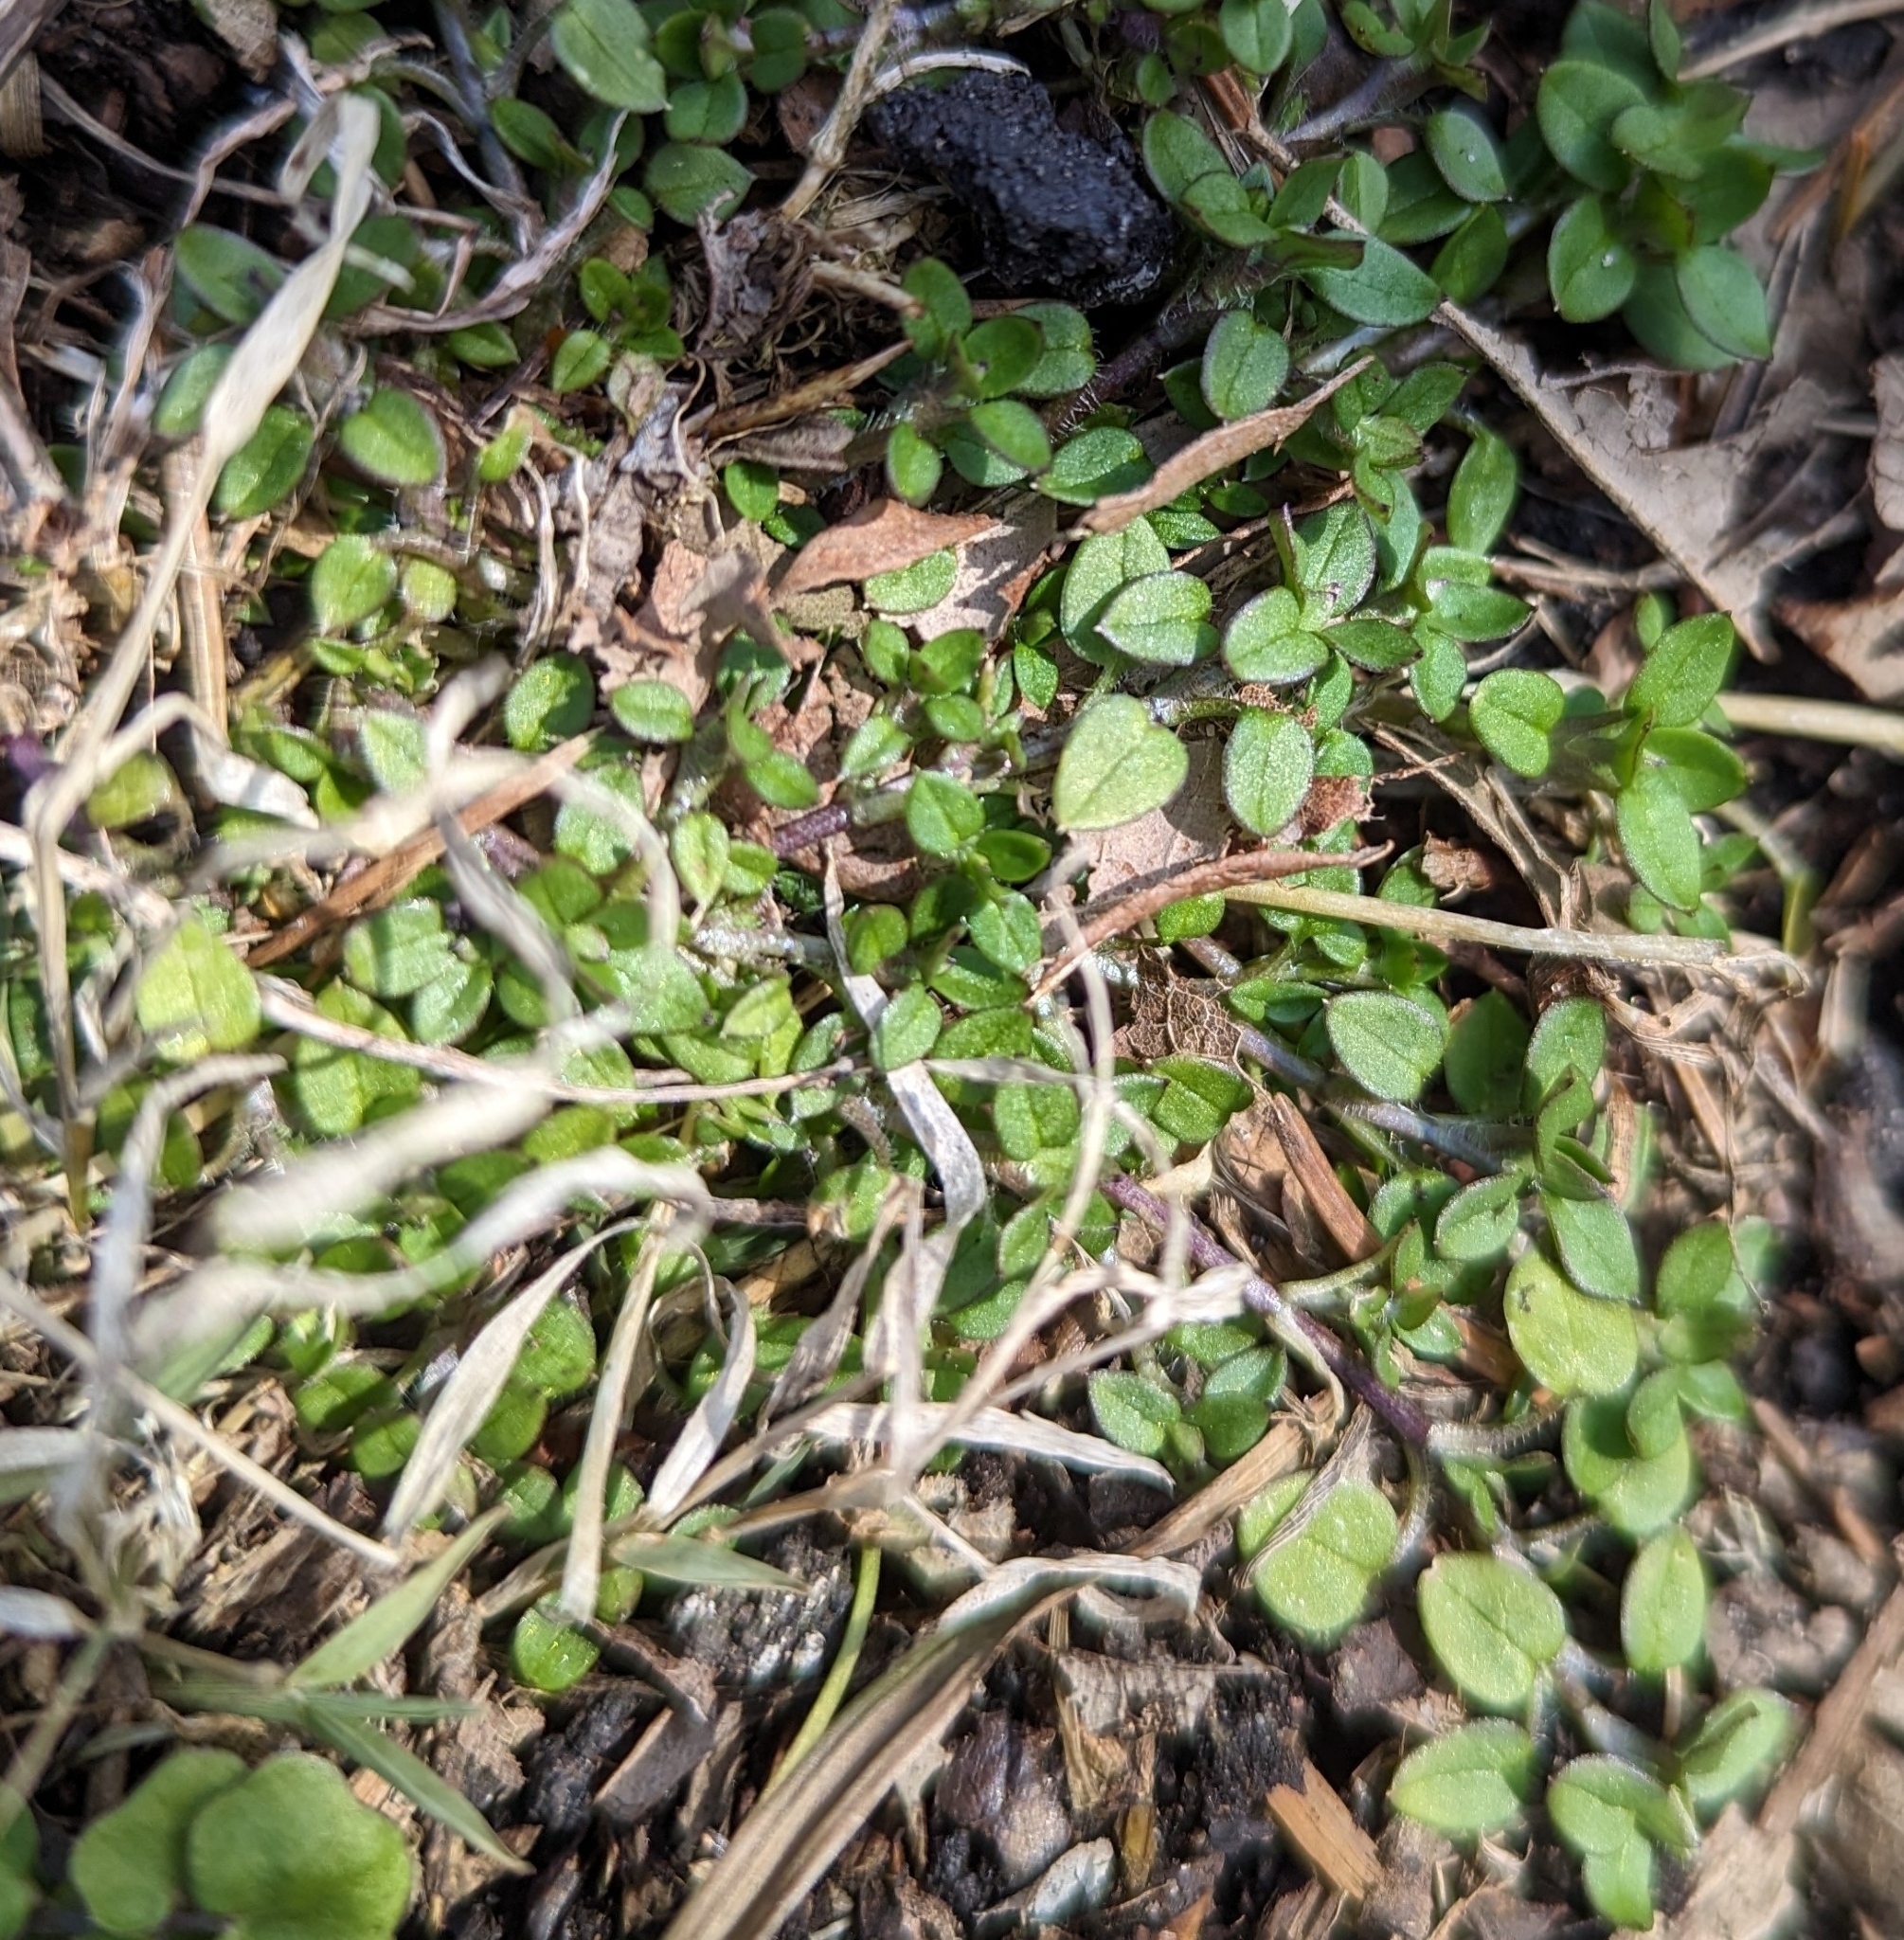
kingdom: Plantae
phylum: Tracheophyta
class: Magnoliopsida
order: Caryophyllales
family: Caryophyllaceae
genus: Stellaria
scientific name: Stellaria media
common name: Common chickweed
